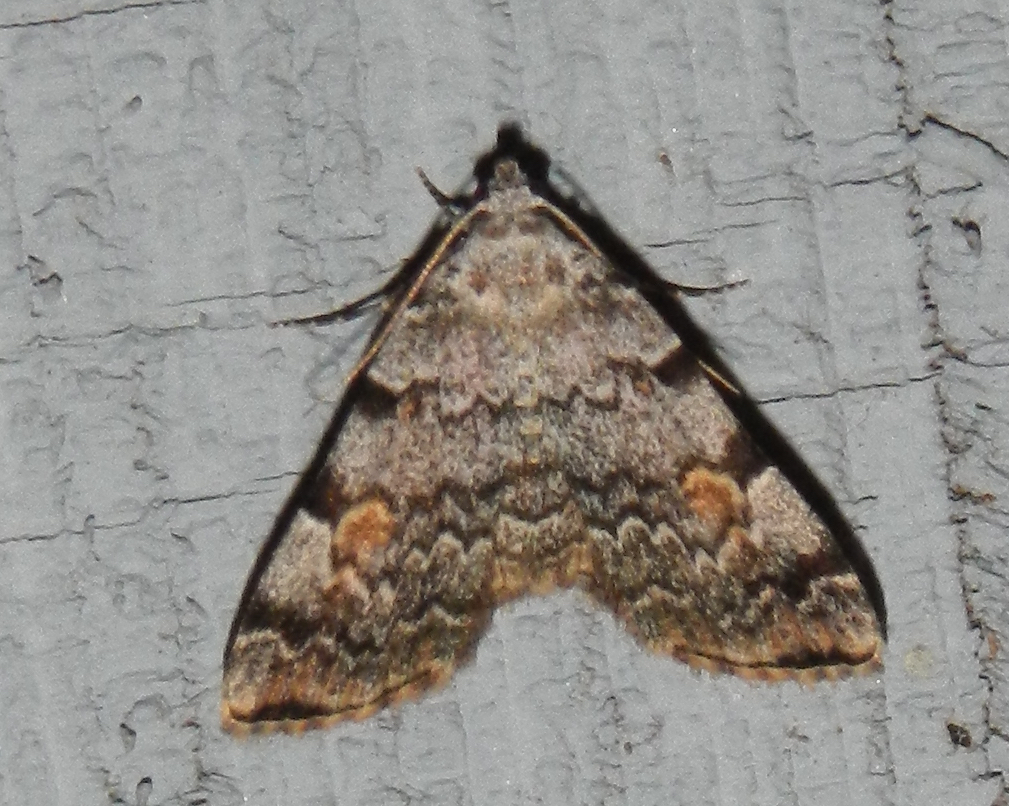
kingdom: Animalia
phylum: Arthropoda
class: Insecta
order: Lepidoptera
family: Erebidae
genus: Idia
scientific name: Idia americalis
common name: American idia moth
